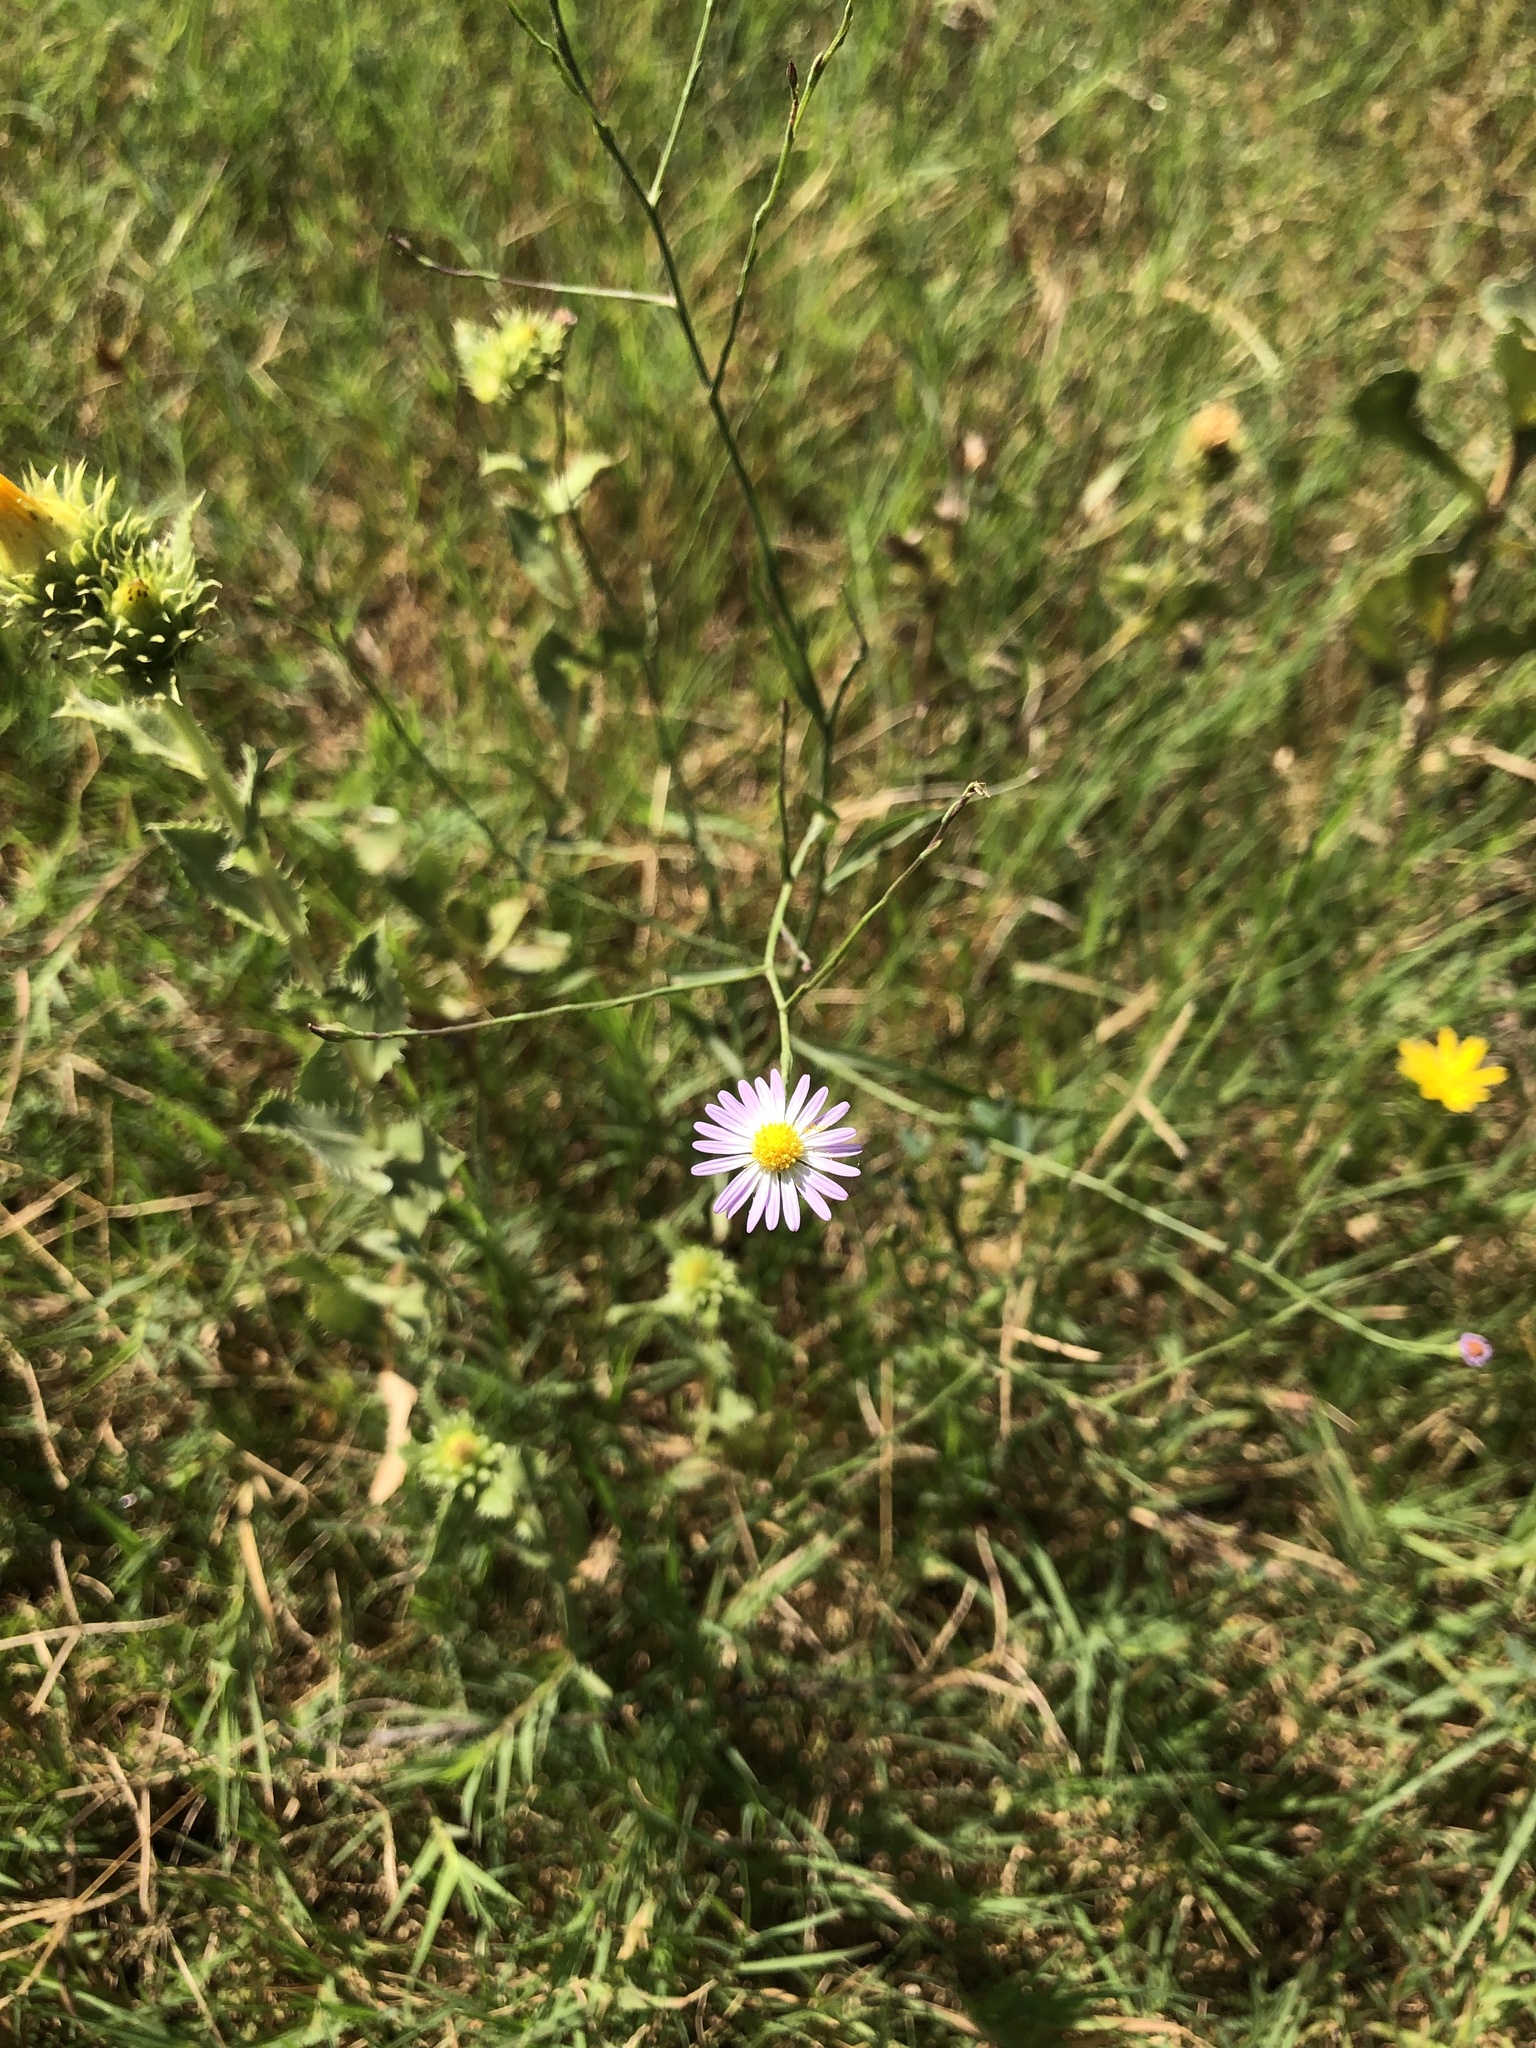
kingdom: Plantae
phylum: Tracheophyta
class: Magnoliopsida
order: Asterales
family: Asteraceae
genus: Symphyotrichum
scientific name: Symphyotrichum divaricatum
